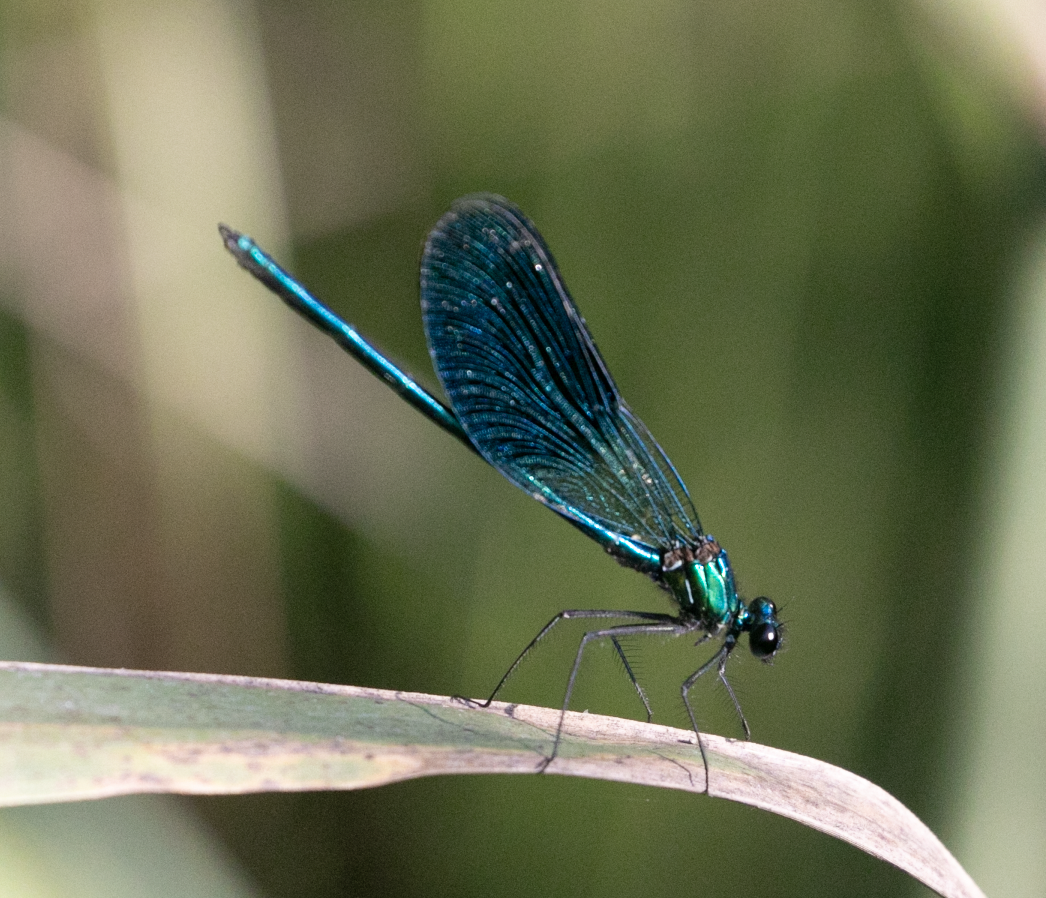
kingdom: Animalia
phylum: Arthropoda
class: Insecta
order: Odonata
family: Calopterygidae
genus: Calopteryx
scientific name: Calopteryx splendens
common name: Banded demoiselle
